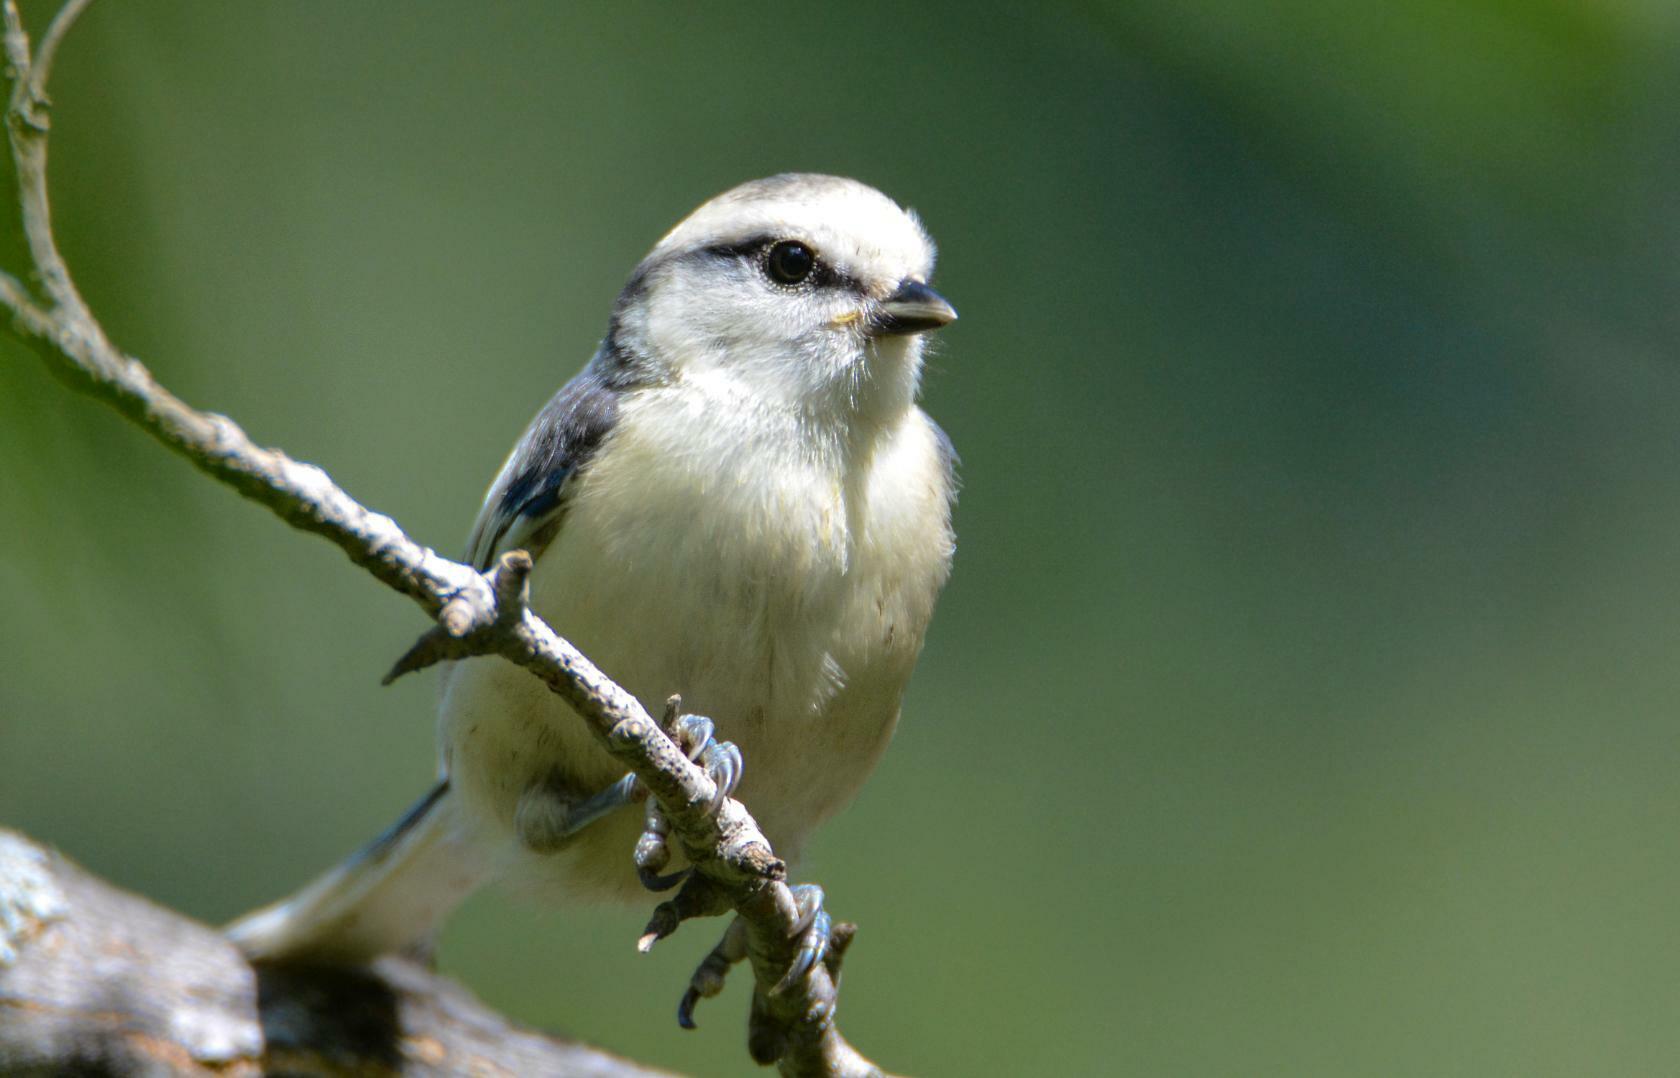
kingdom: Animalia
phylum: Chordata
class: Aves
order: Passeriformes
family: Paridae
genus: Cyanistes
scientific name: Cyanistes cyanus
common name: Azure tit
